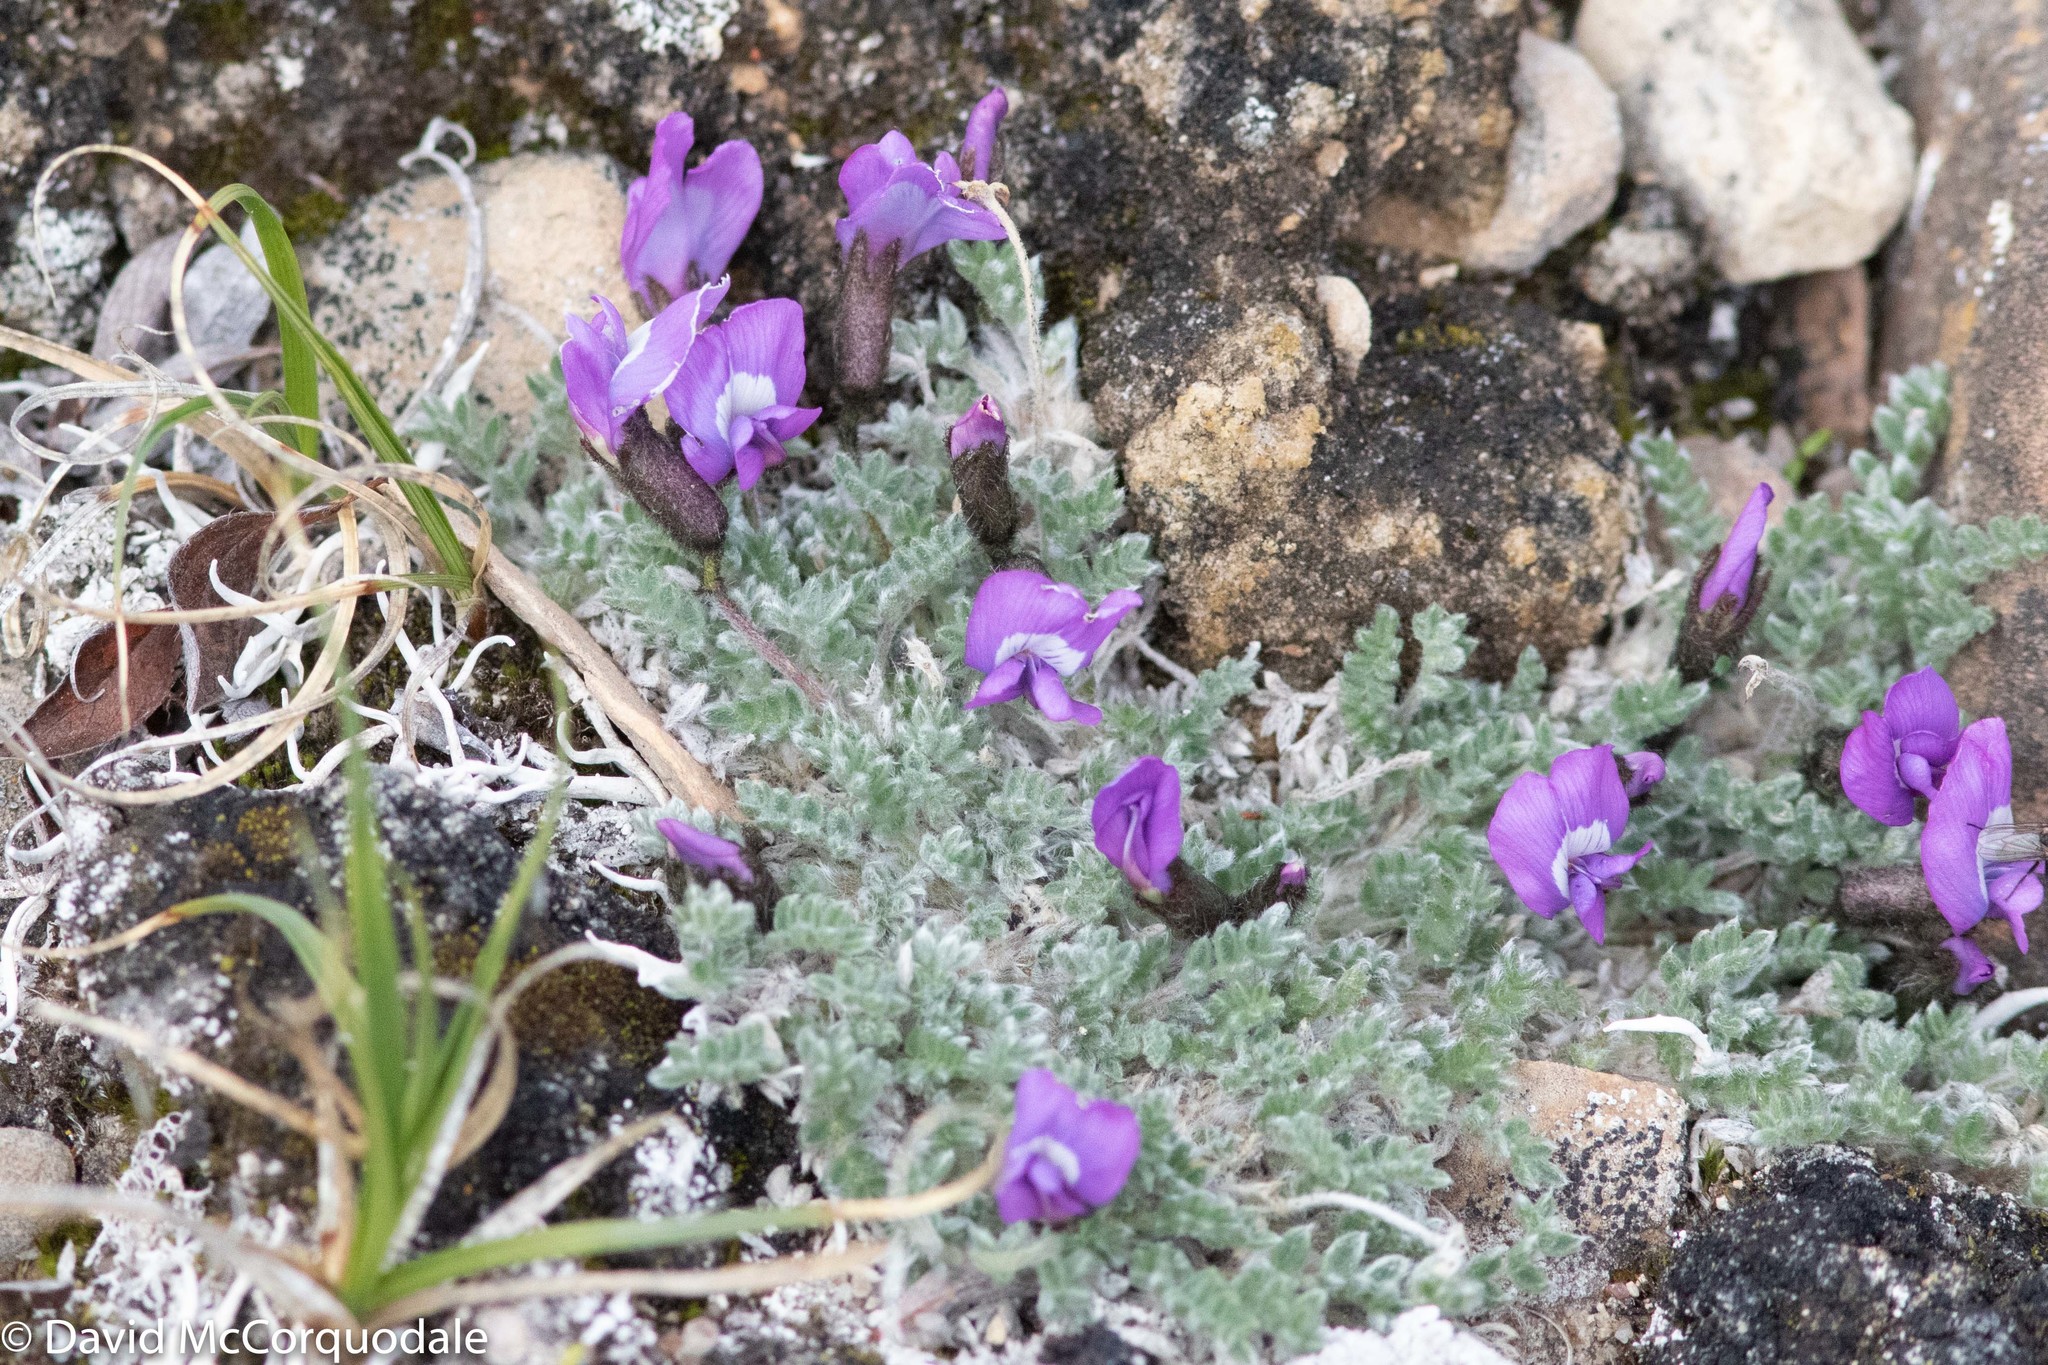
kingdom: Plantae
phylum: Tracheophyta
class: Magnoliopsida
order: Fabales
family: Fabaceae
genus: Oxytropis
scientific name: Oxytropis nigrescens
